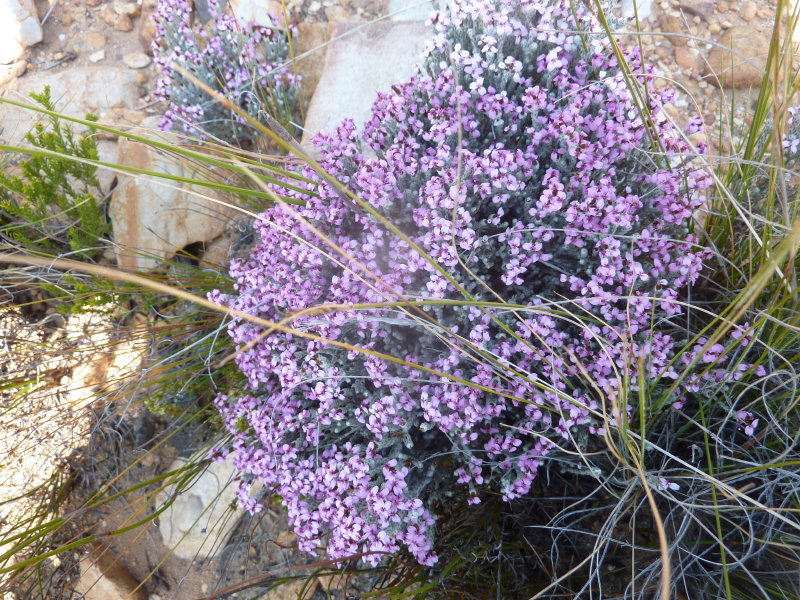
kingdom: Plantae
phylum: Tracheophyta
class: Magnoliopsida
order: Asterales
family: Asteraceae
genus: Disparago
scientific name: Disparago kolbei
